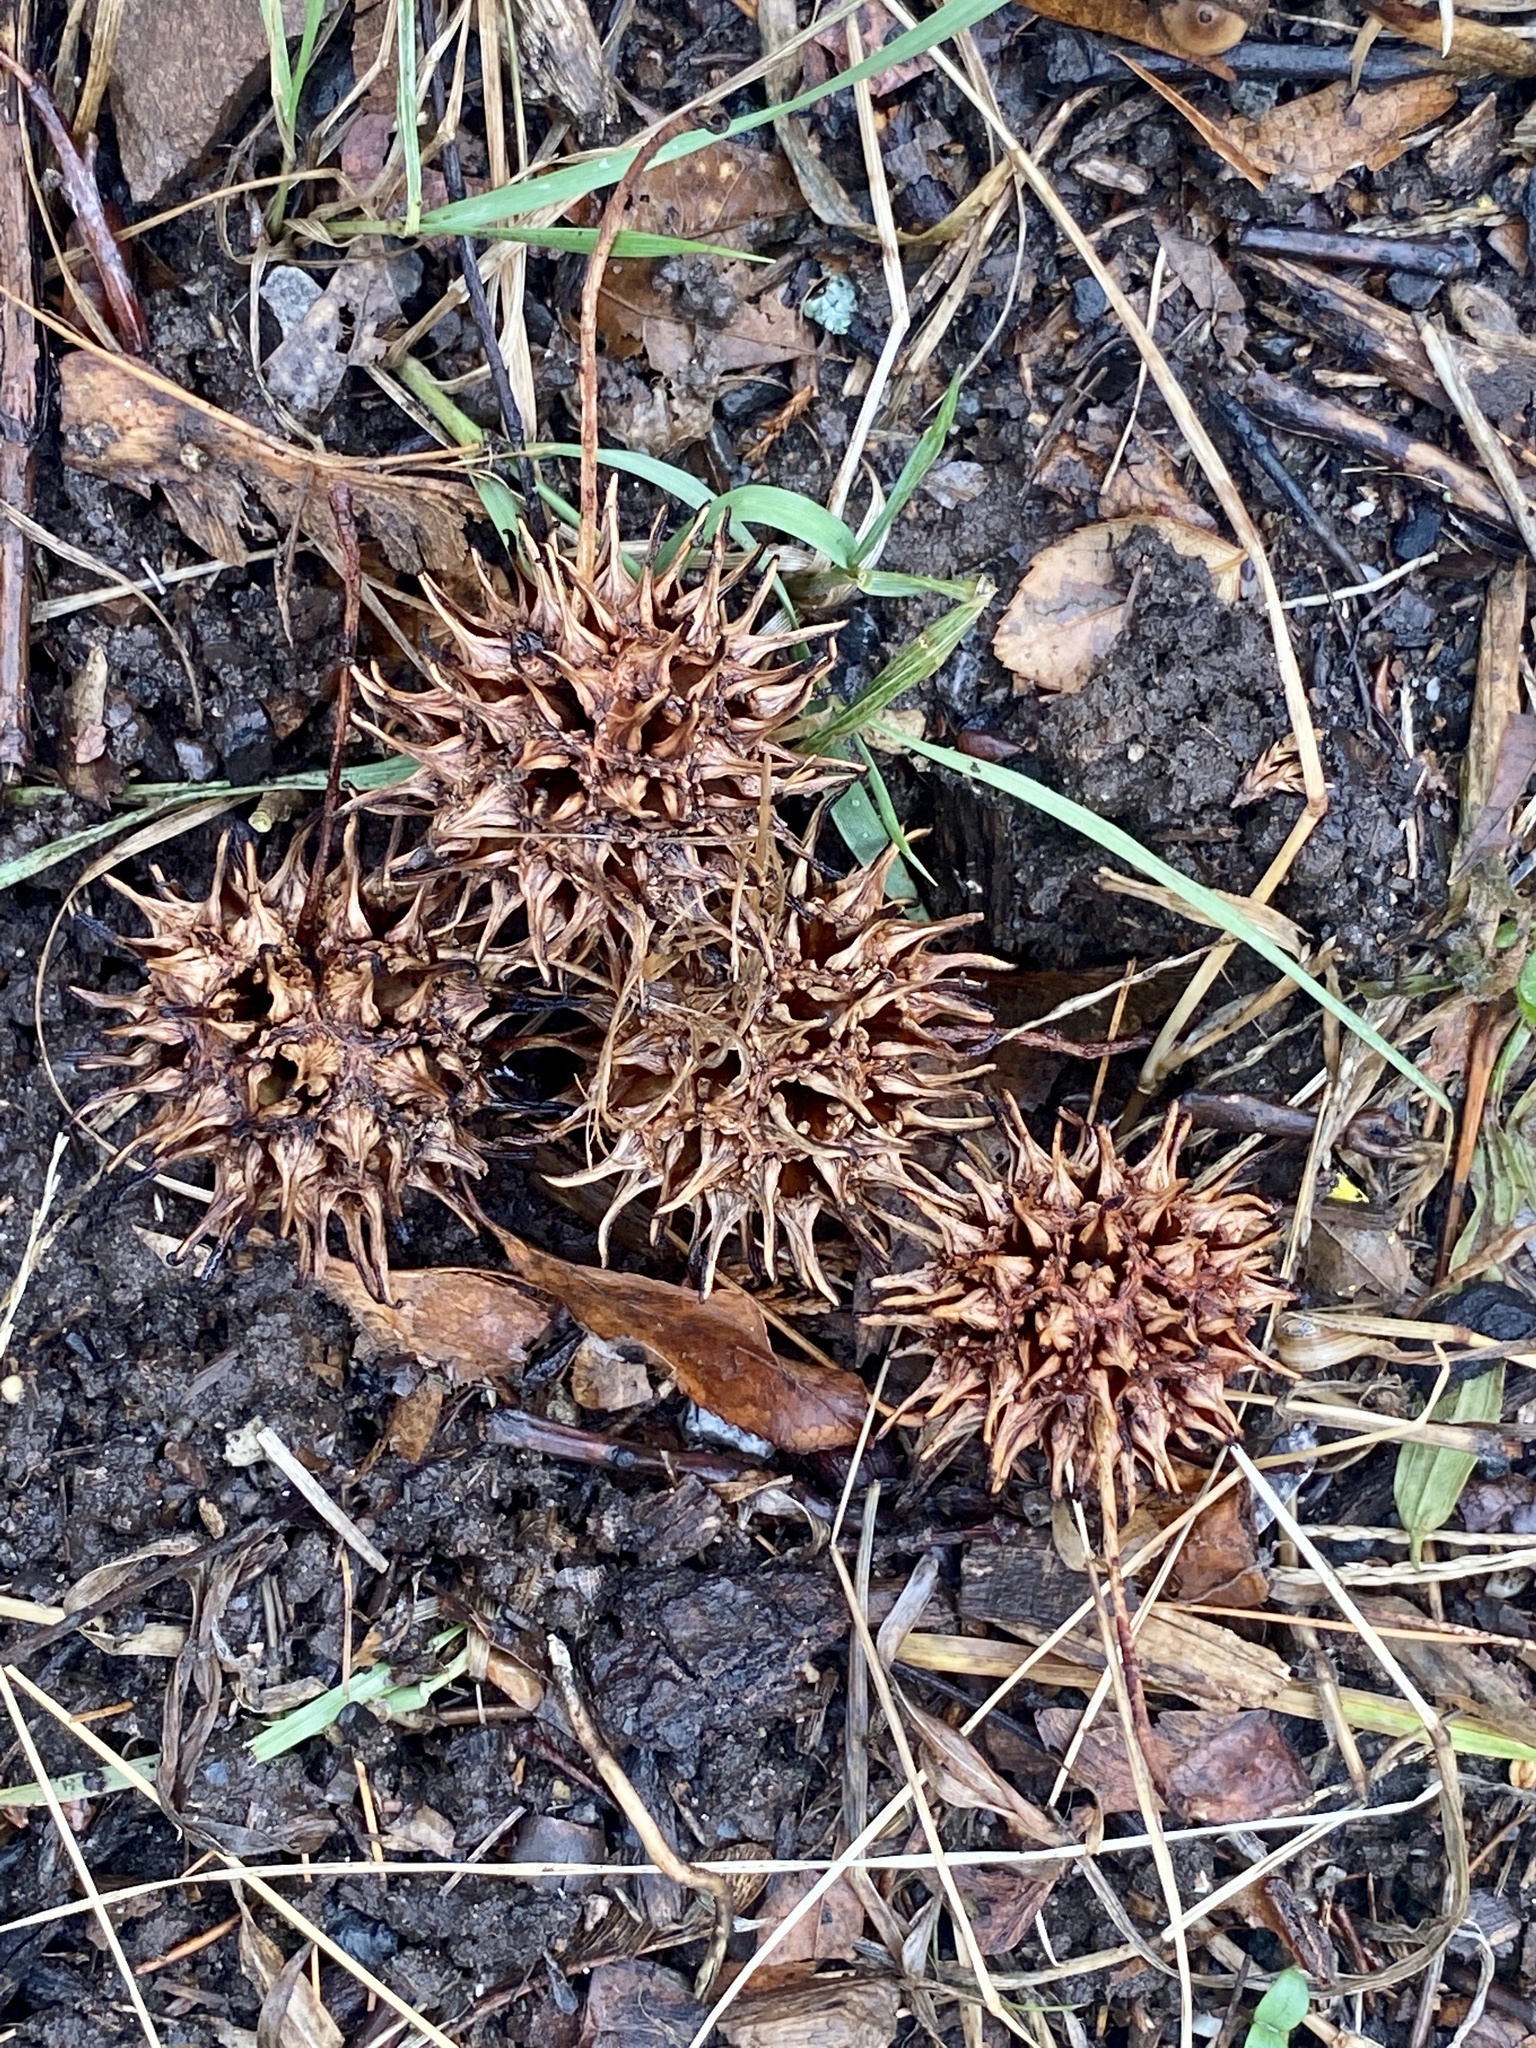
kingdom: Plantae
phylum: Tracheophyta
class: Magnoliopsida
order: Saxifragales
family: Altingiaceae
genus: Liquidambar
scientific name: Liquidambar styraciflua
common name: Sweet gum
